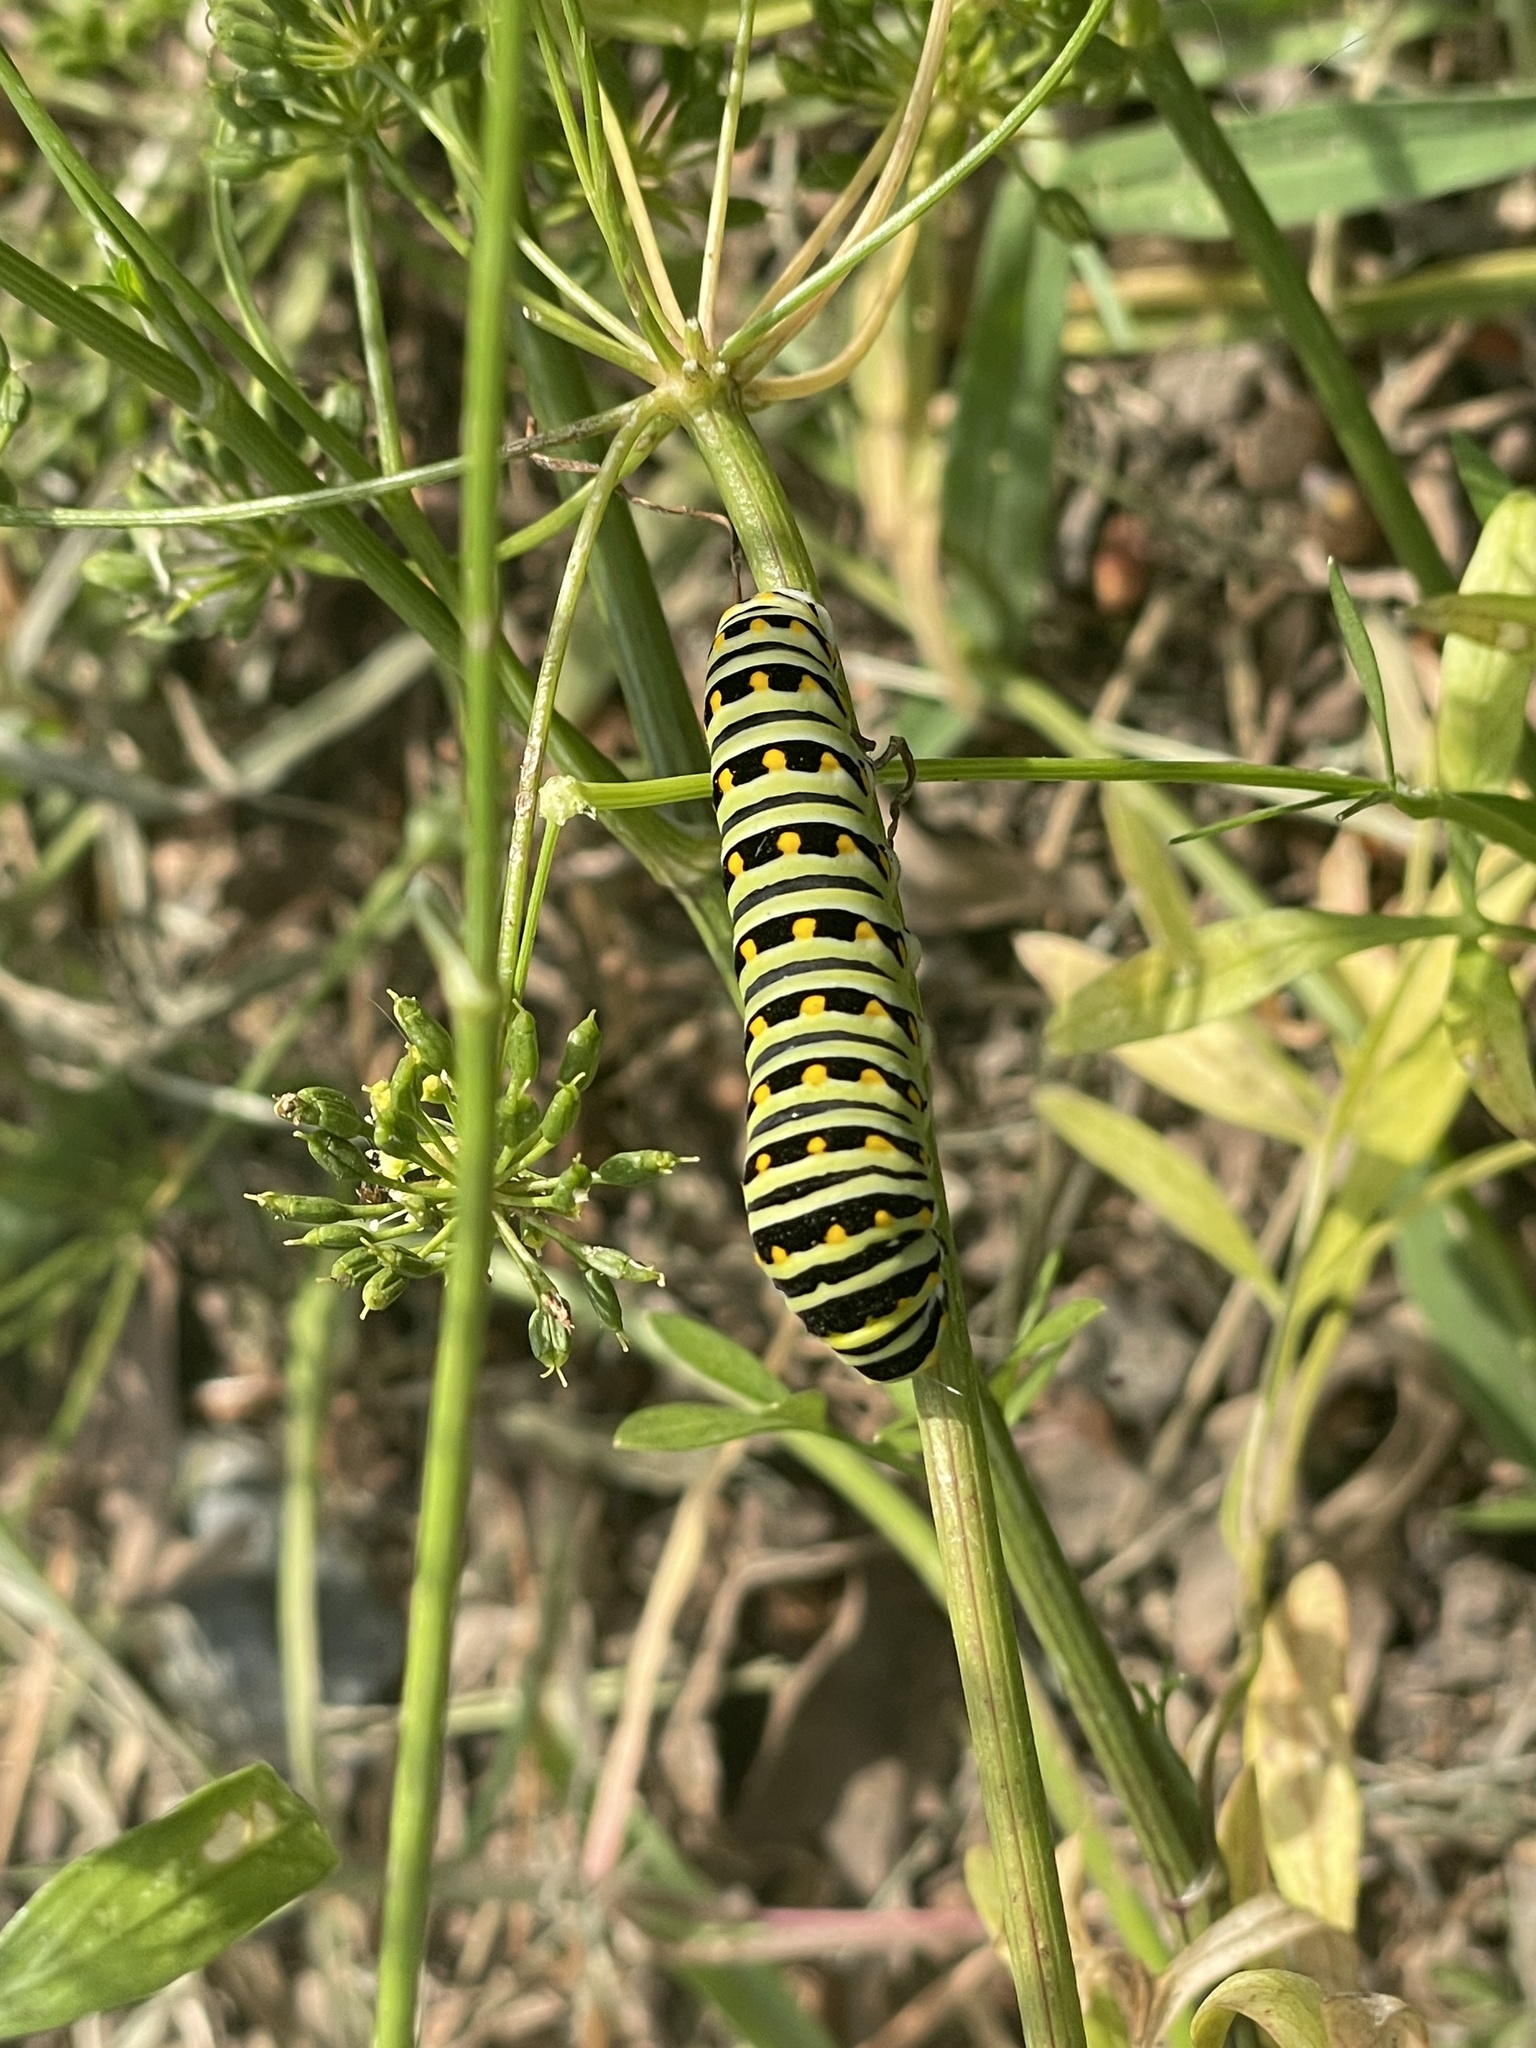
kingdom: Animalia
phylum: Arthropoda
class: Insecta
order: Lepidoptera
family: Papilionidae
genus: Papilio
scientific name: Papilio polyxenes
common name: Black swallowtail
